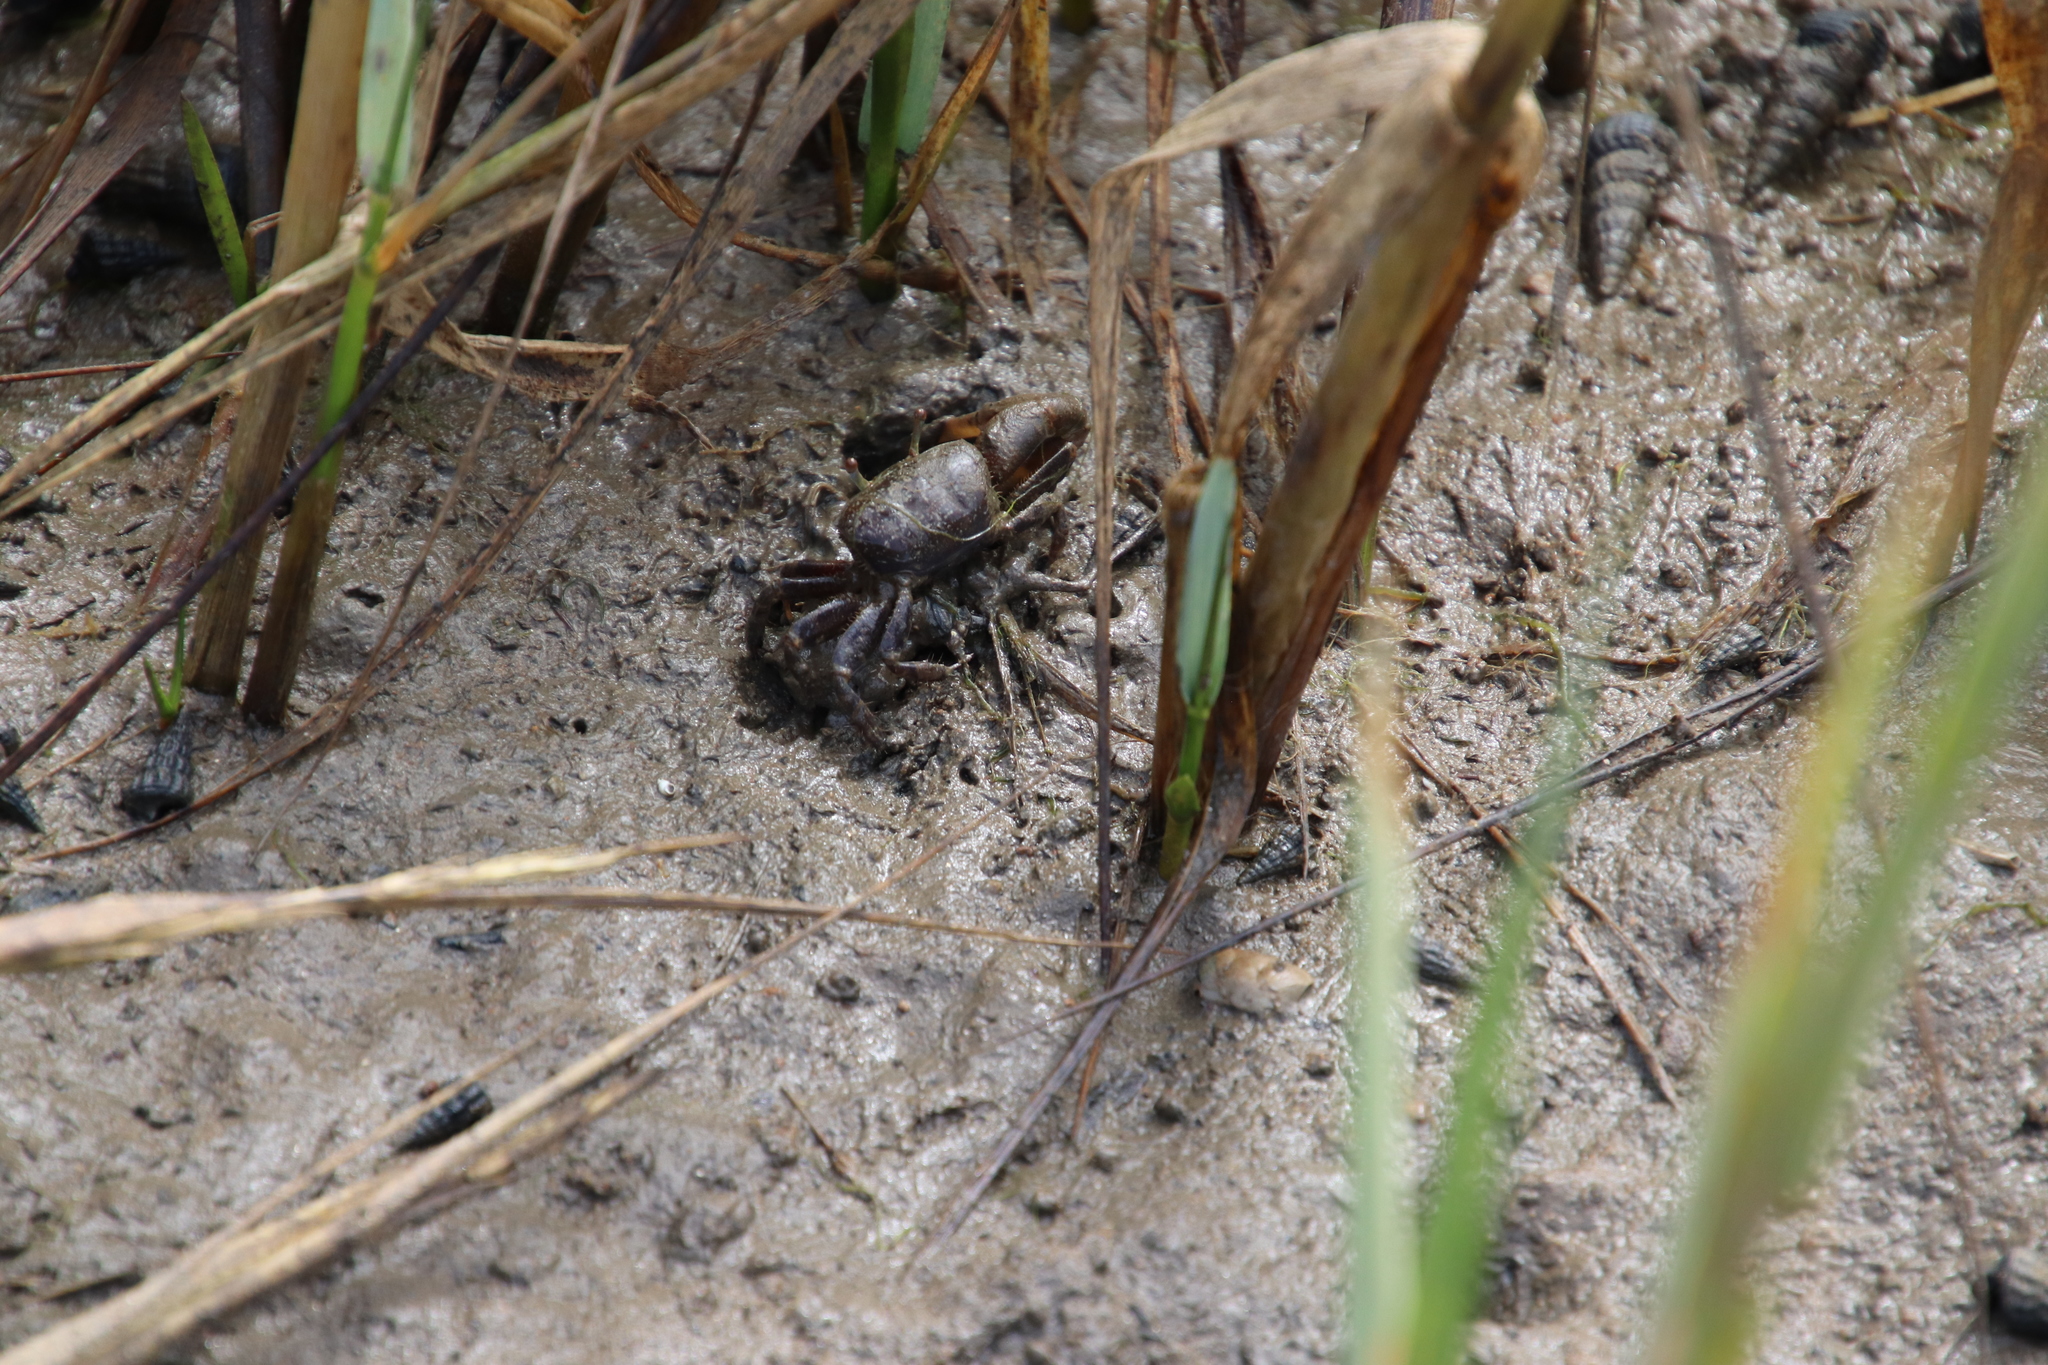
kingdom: Animalia
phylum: Arthropoda
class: Malacostraca
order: Decapoda
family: Ocypodidae
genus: Leptuca
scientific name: Leptuca crenulata
